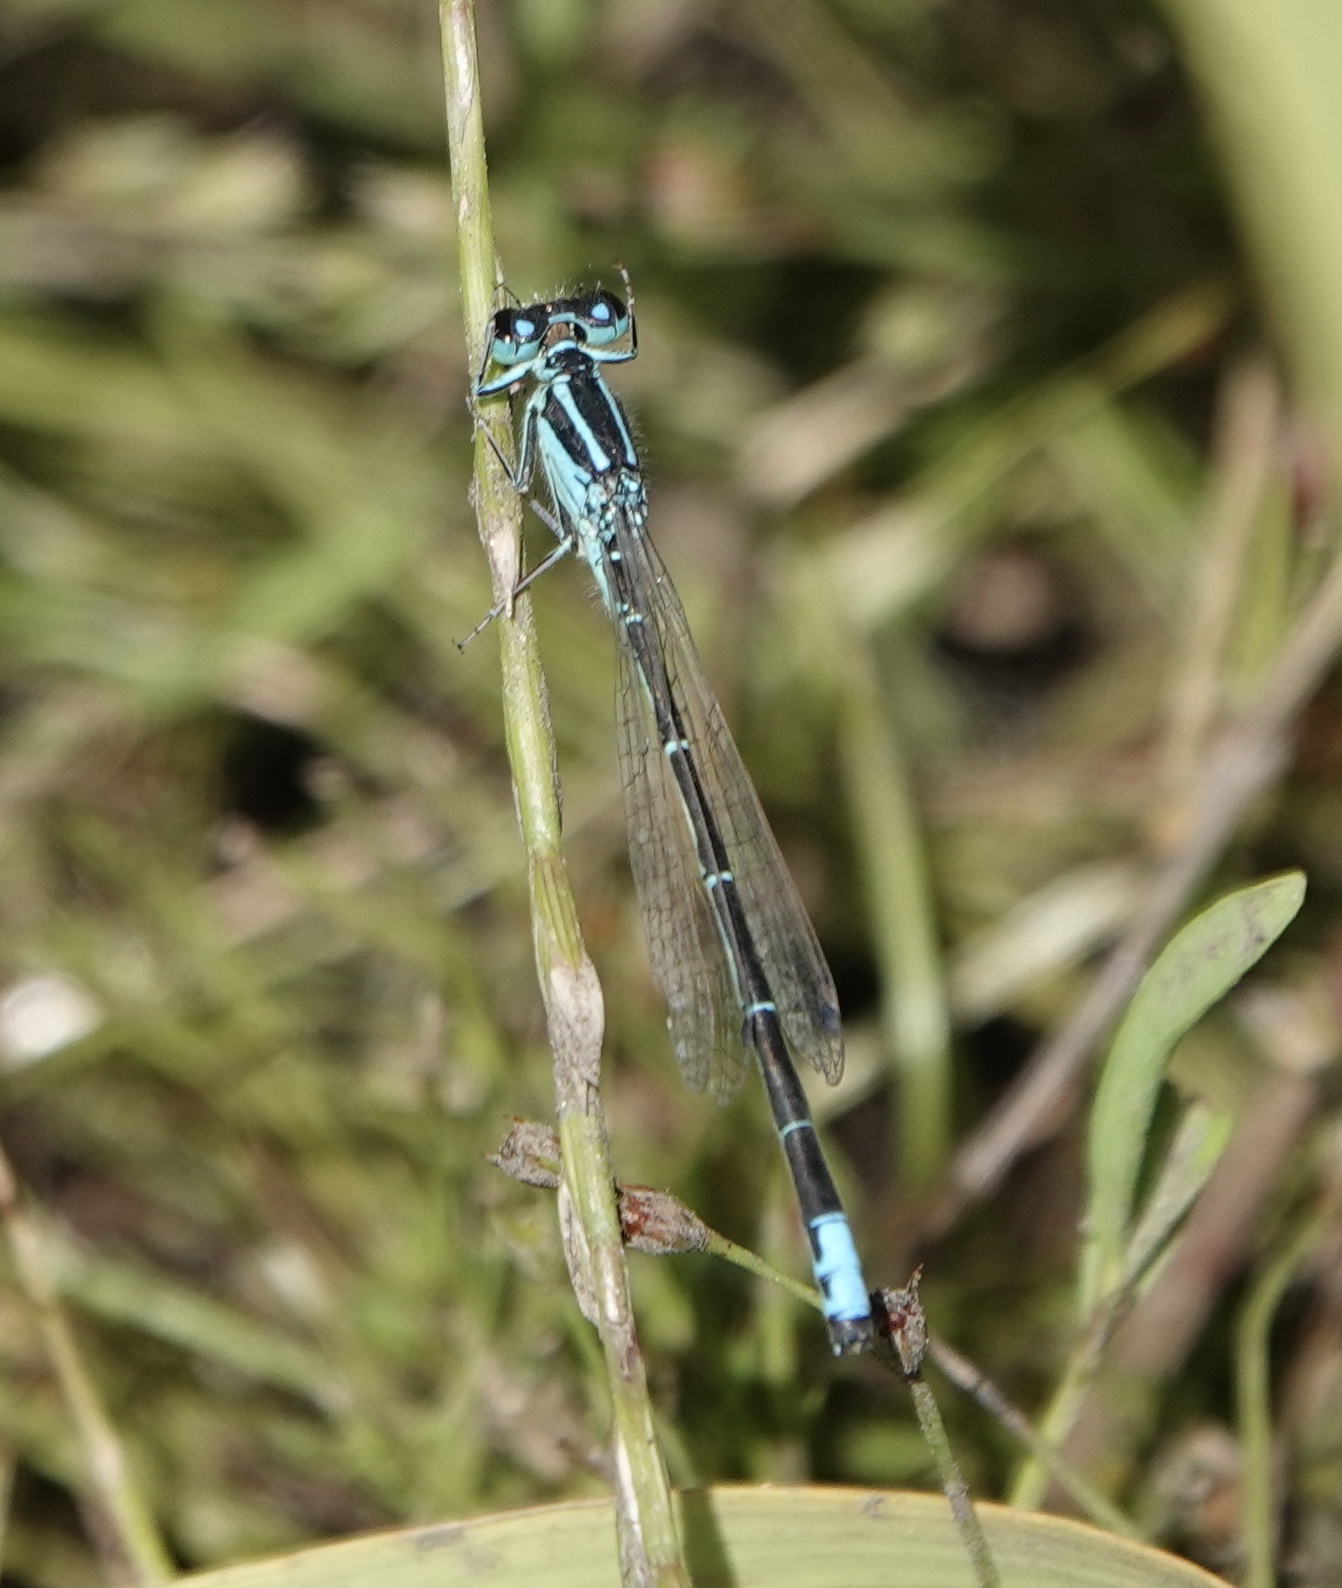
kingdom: Animalia
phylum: Arthropoda
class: Insecta
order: Odonata
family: Coenagrionidae
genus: Ischnura
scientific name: Ischnura perparva
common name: Western forktail
